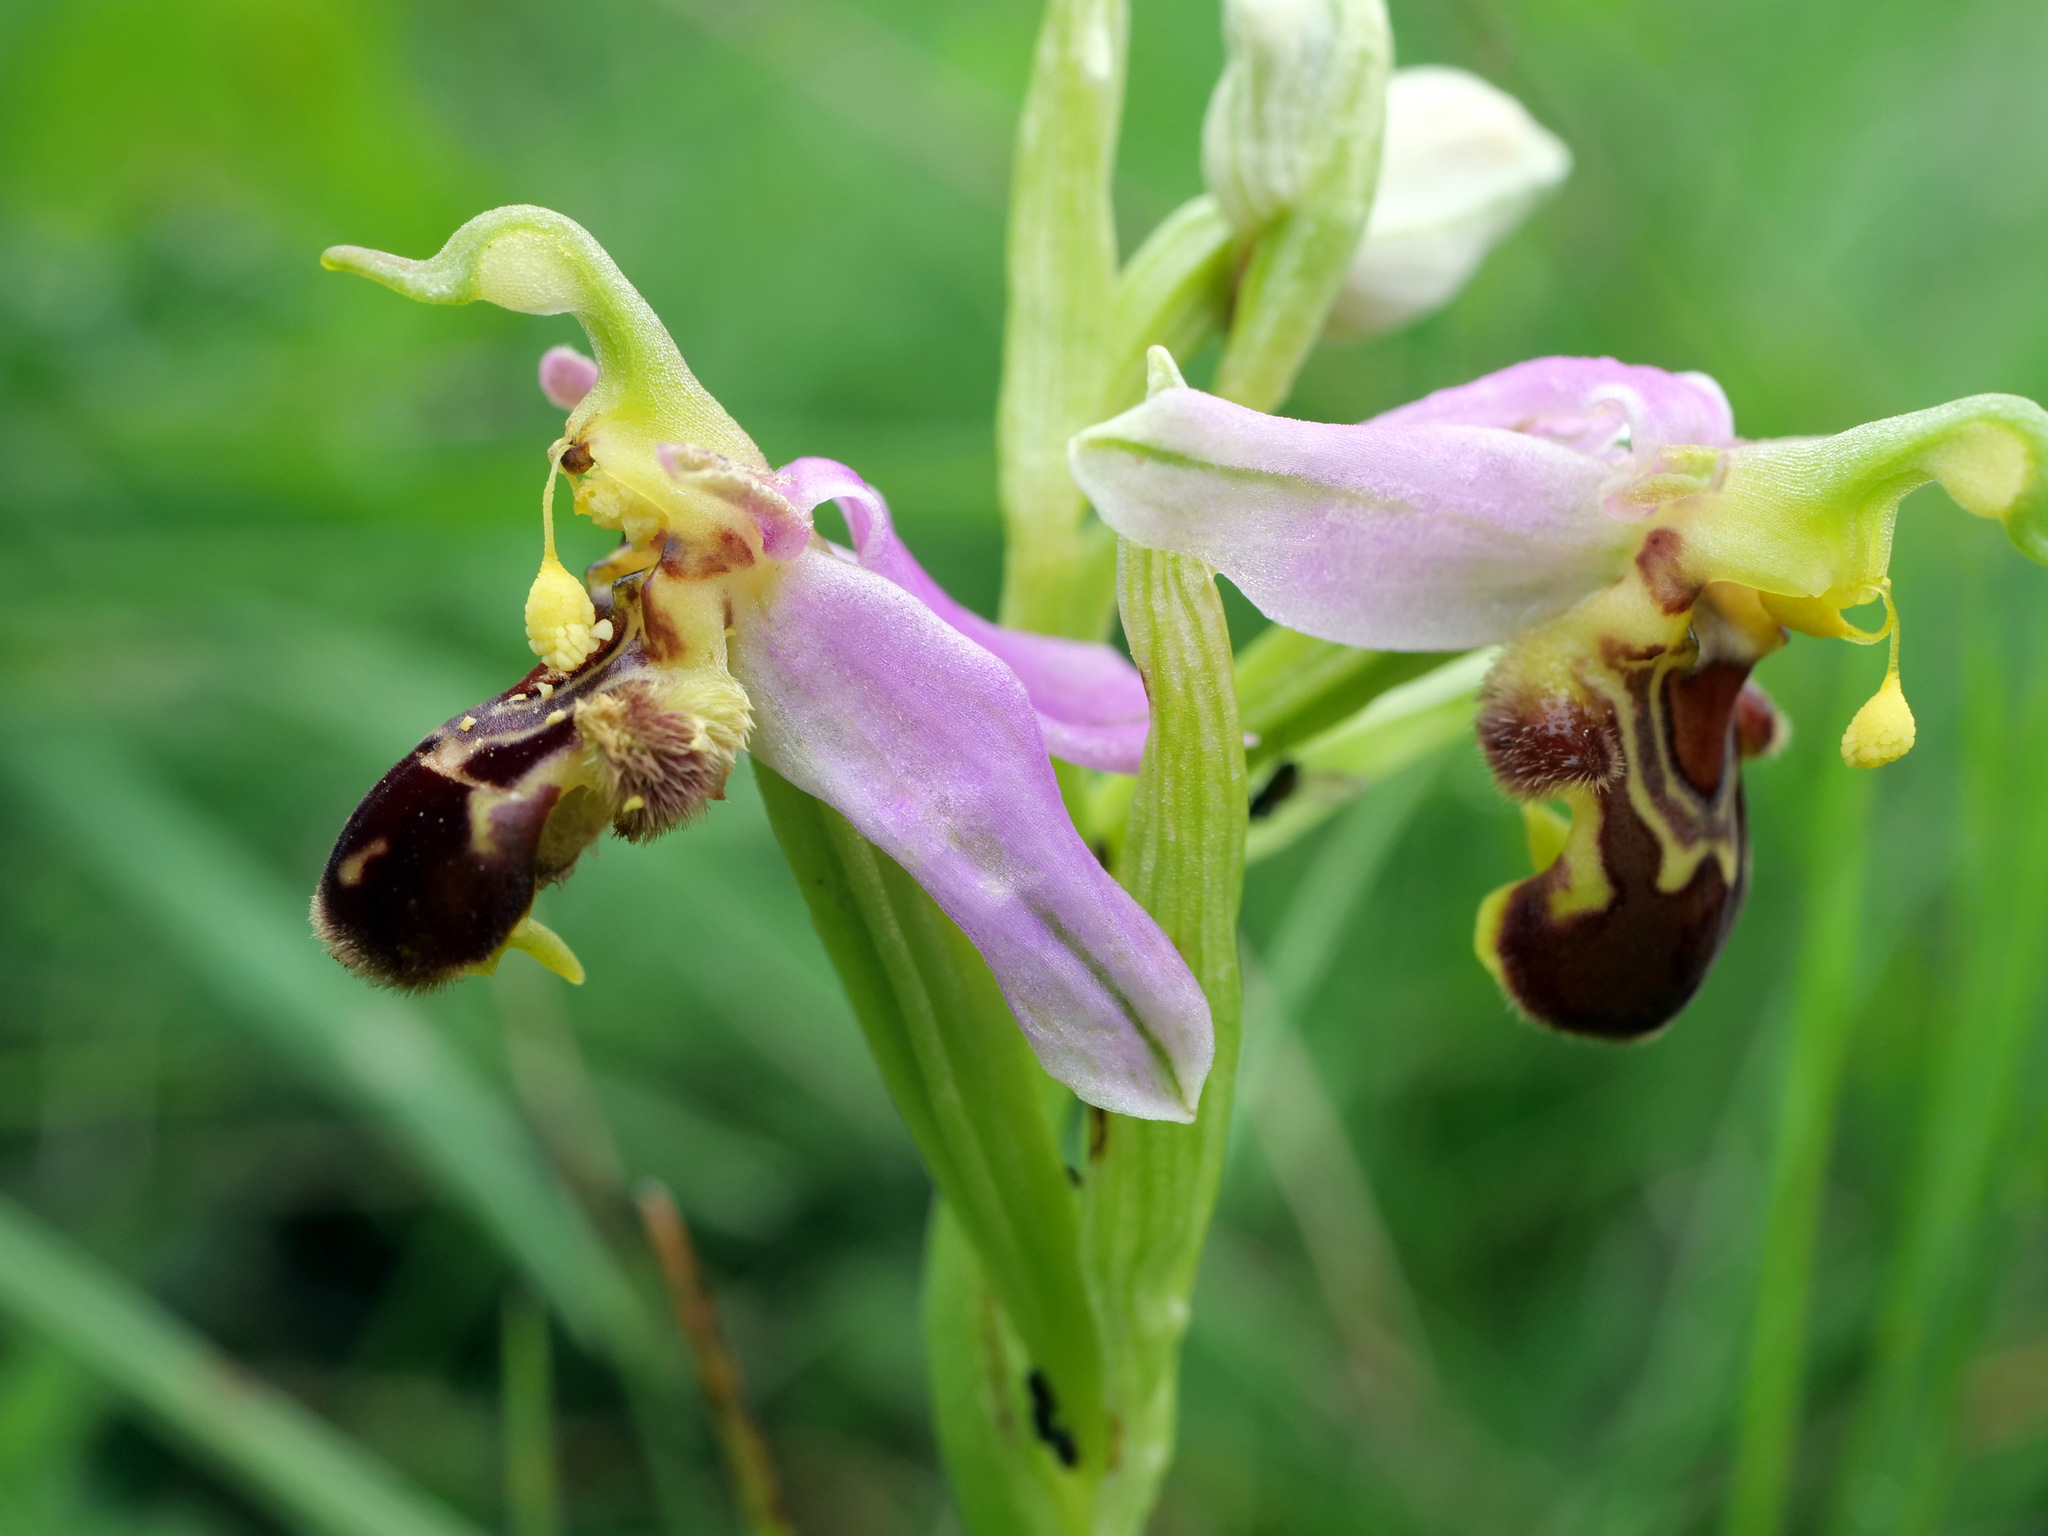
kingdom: Plantae
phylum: Tracheophyta
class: Liliopsida
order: Asparagales
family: Orchidaceae
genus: Ophrys
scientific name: Ophrys apifera
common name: Bee orchid
